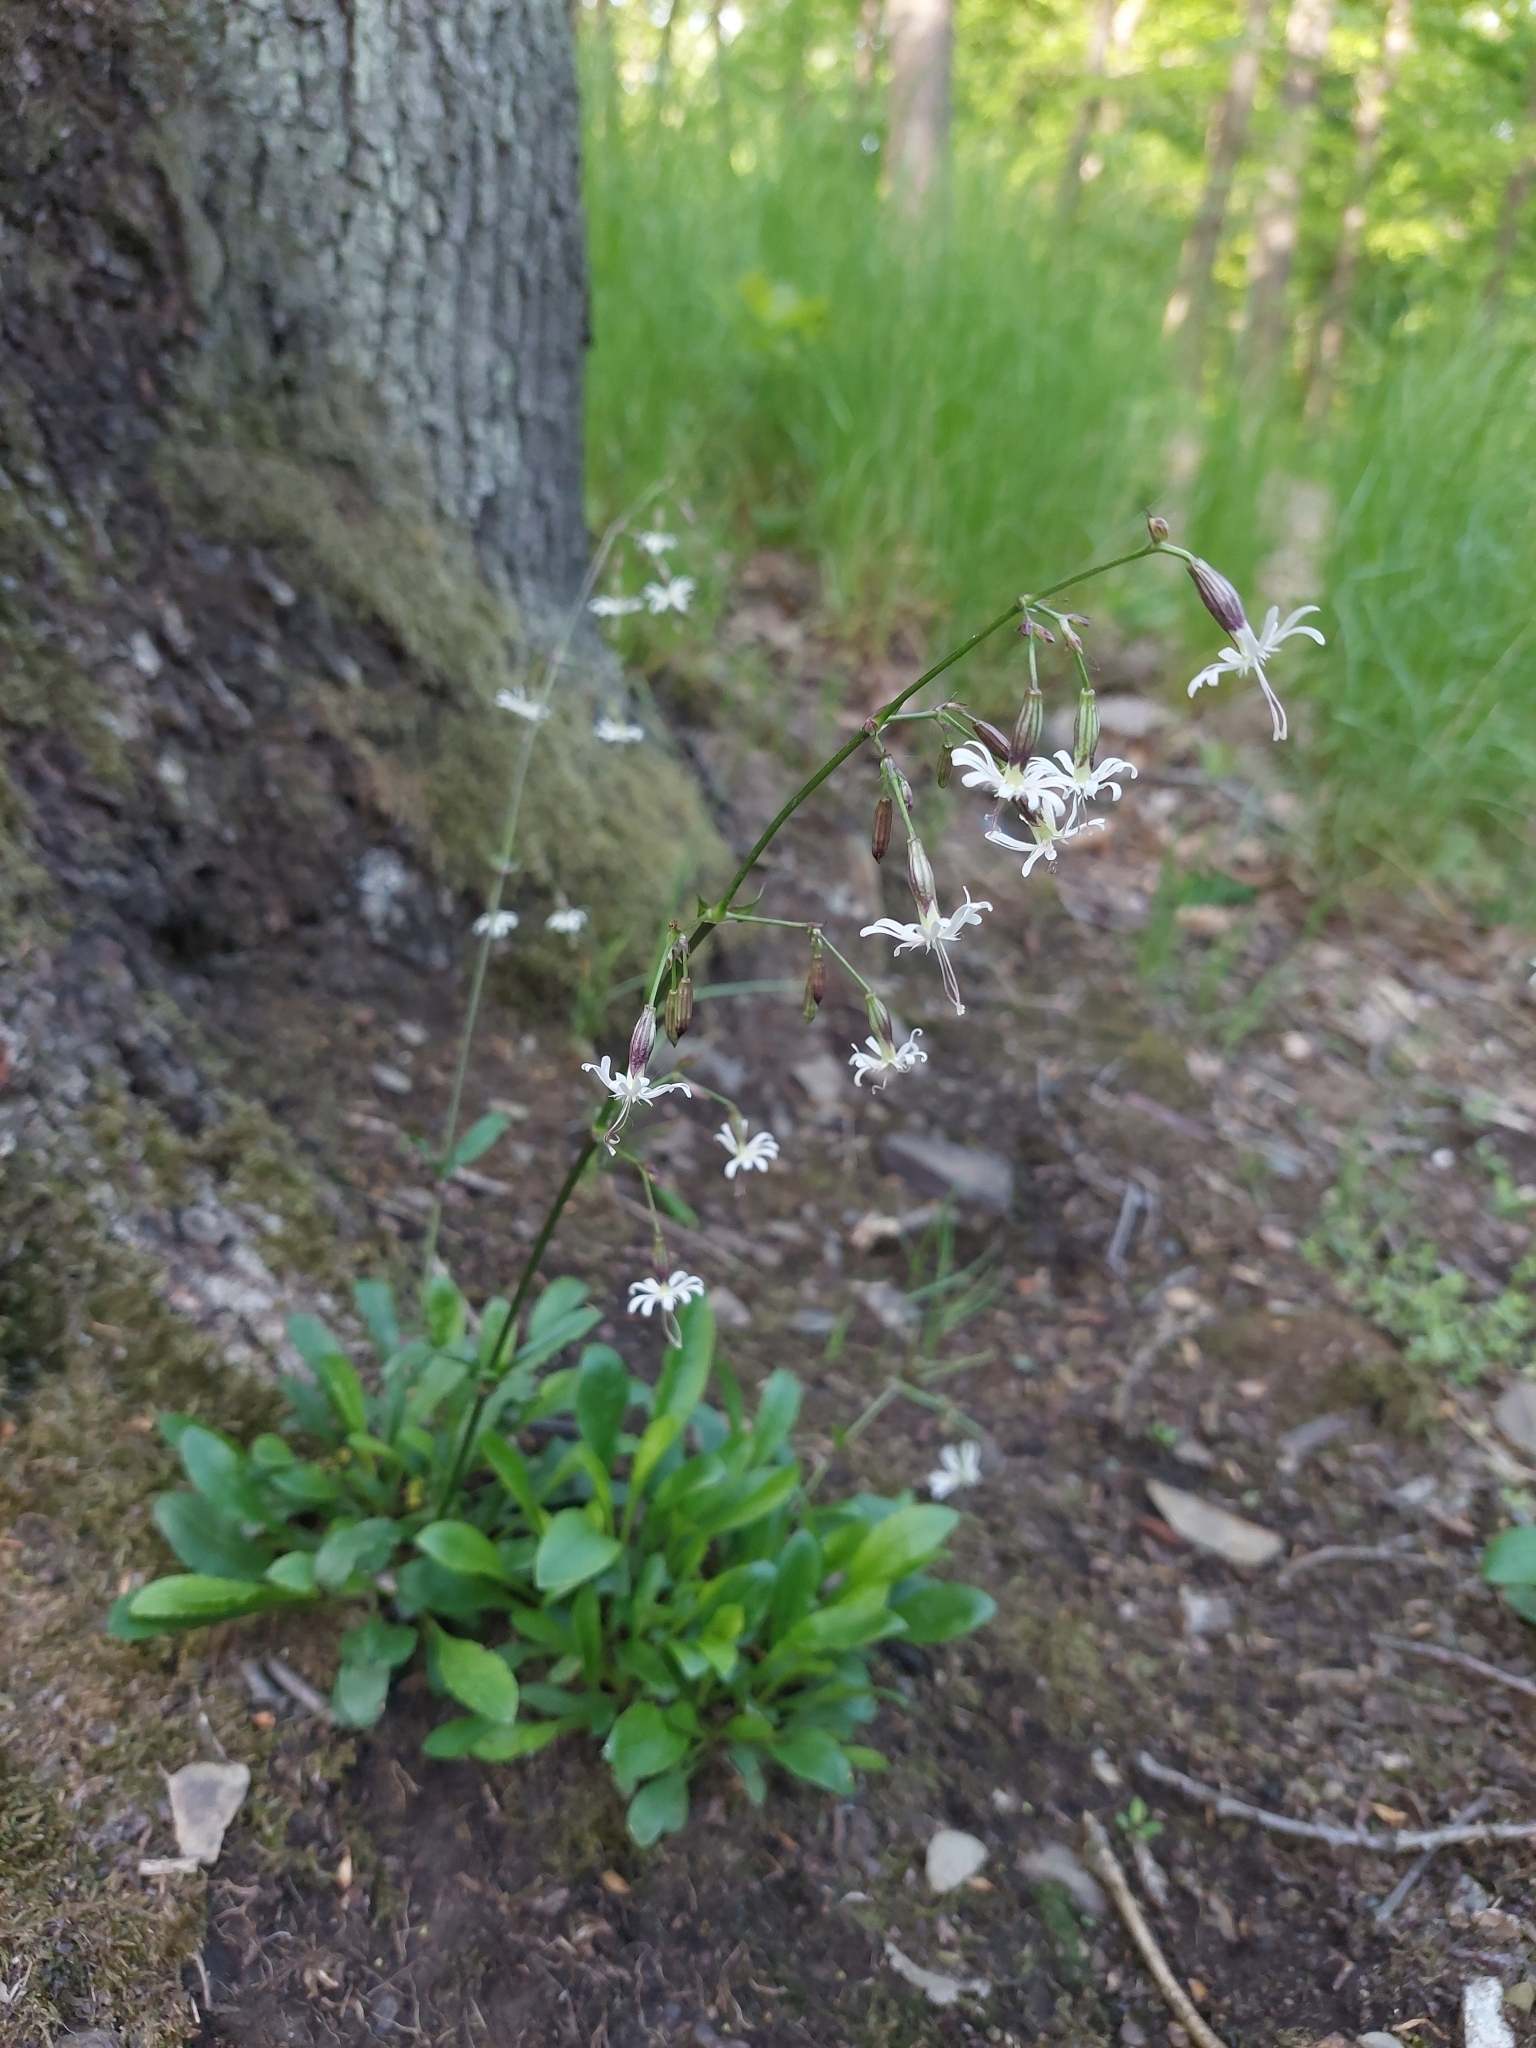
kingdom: Plantae
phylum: Tracheophyta
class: Magnoliopsida
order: Caryophyllales
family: Caryophyllaceae
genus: Silene
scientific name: Silene nutans
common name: Nottingham catchfly
